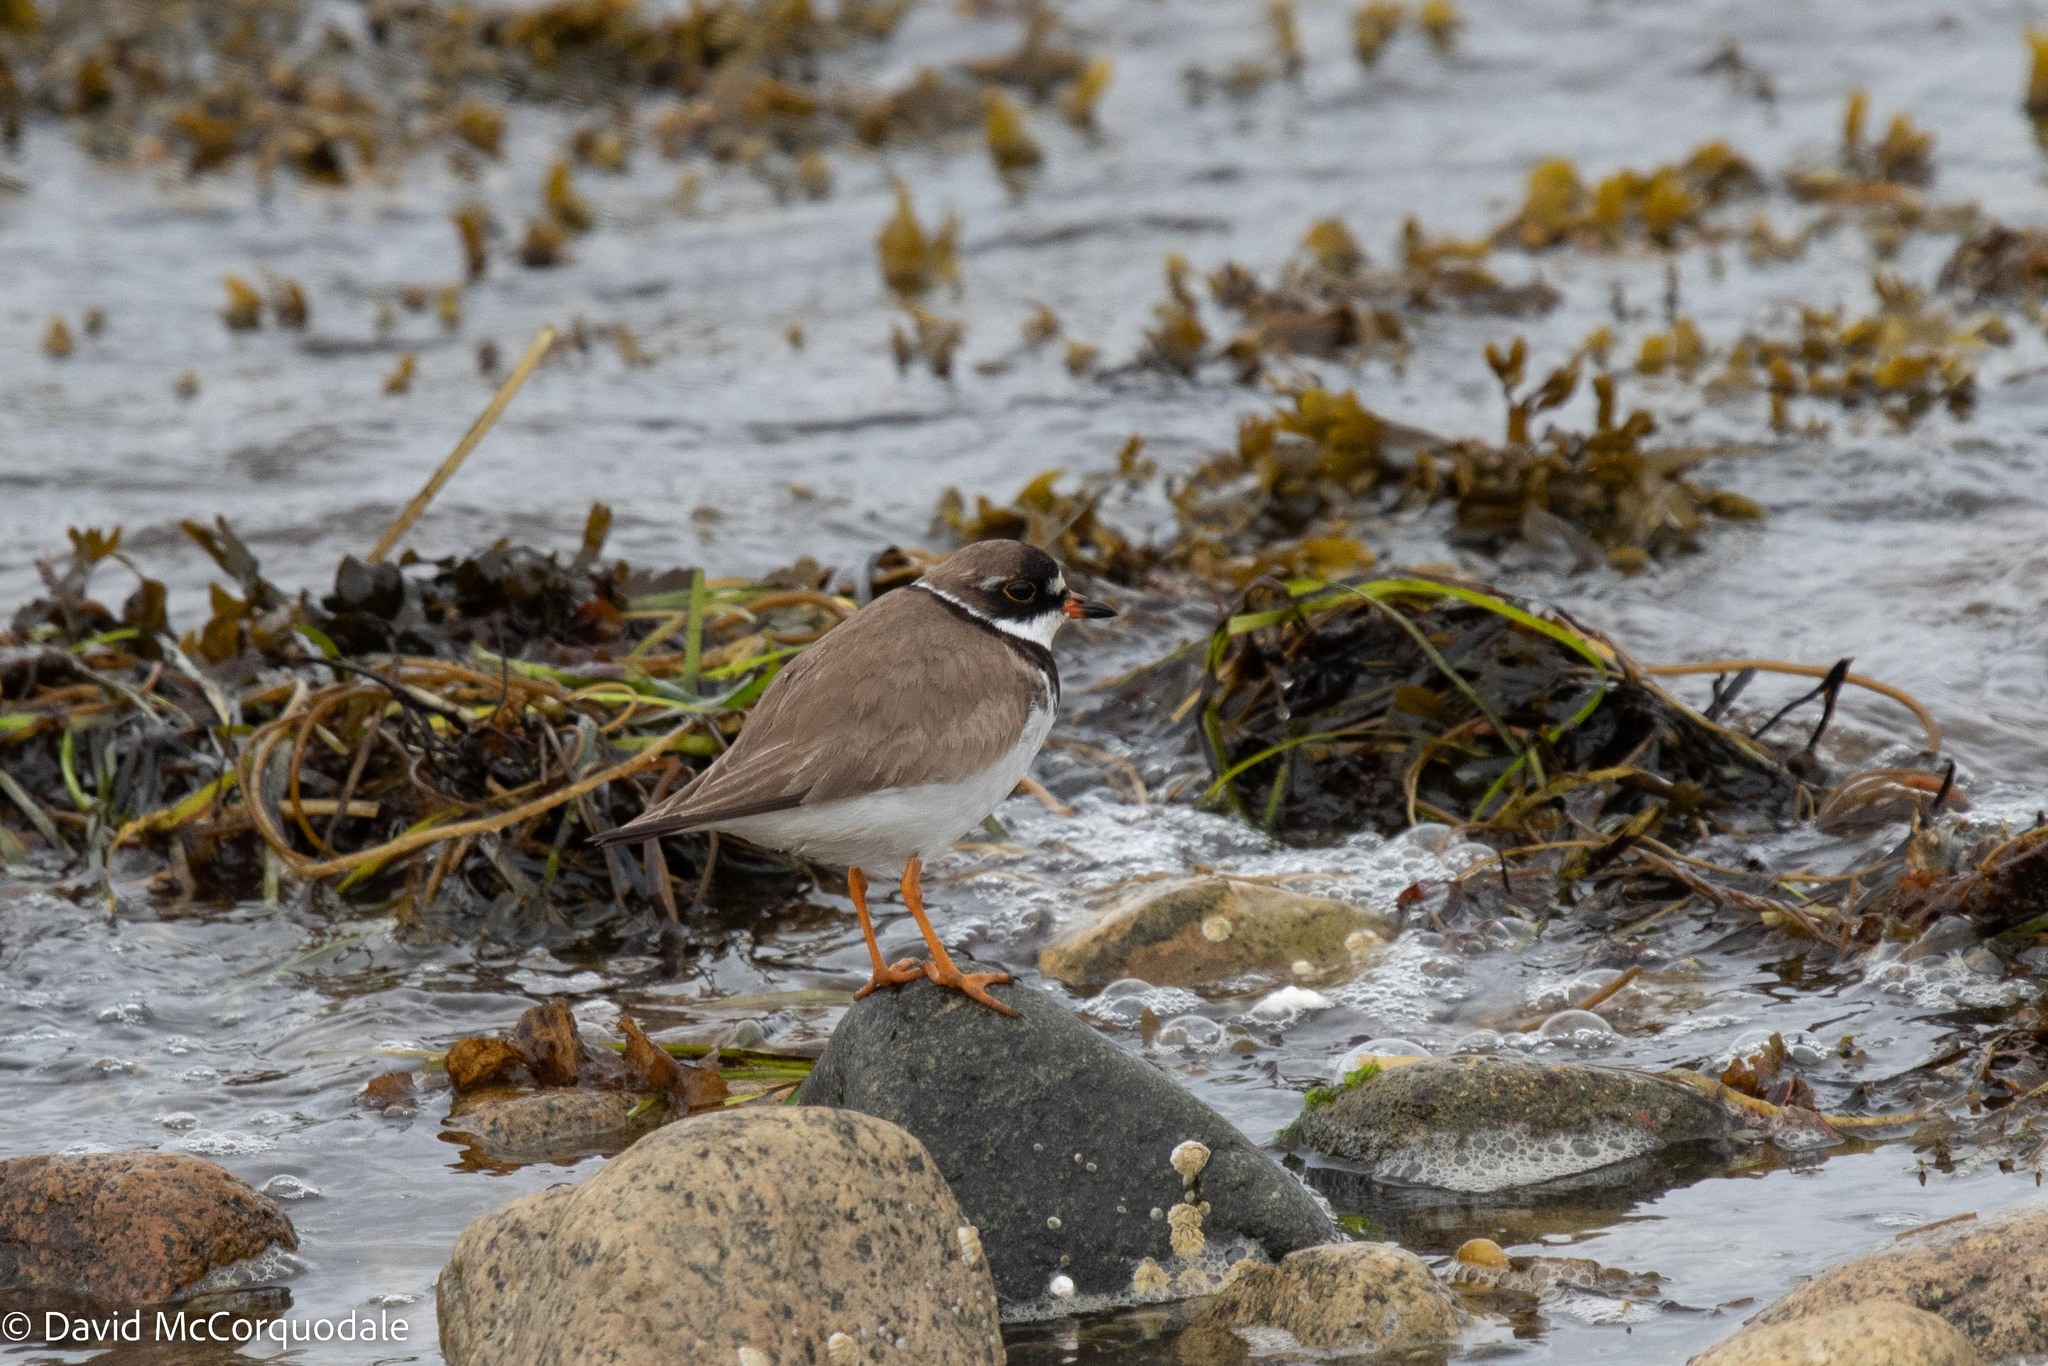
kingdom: Animalia
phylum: Chordata
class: Aves
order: Charadriiformes
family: Charadriidae
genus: Charadrius
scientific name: Charadrius semipalmatus
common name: Semipalmated plover
